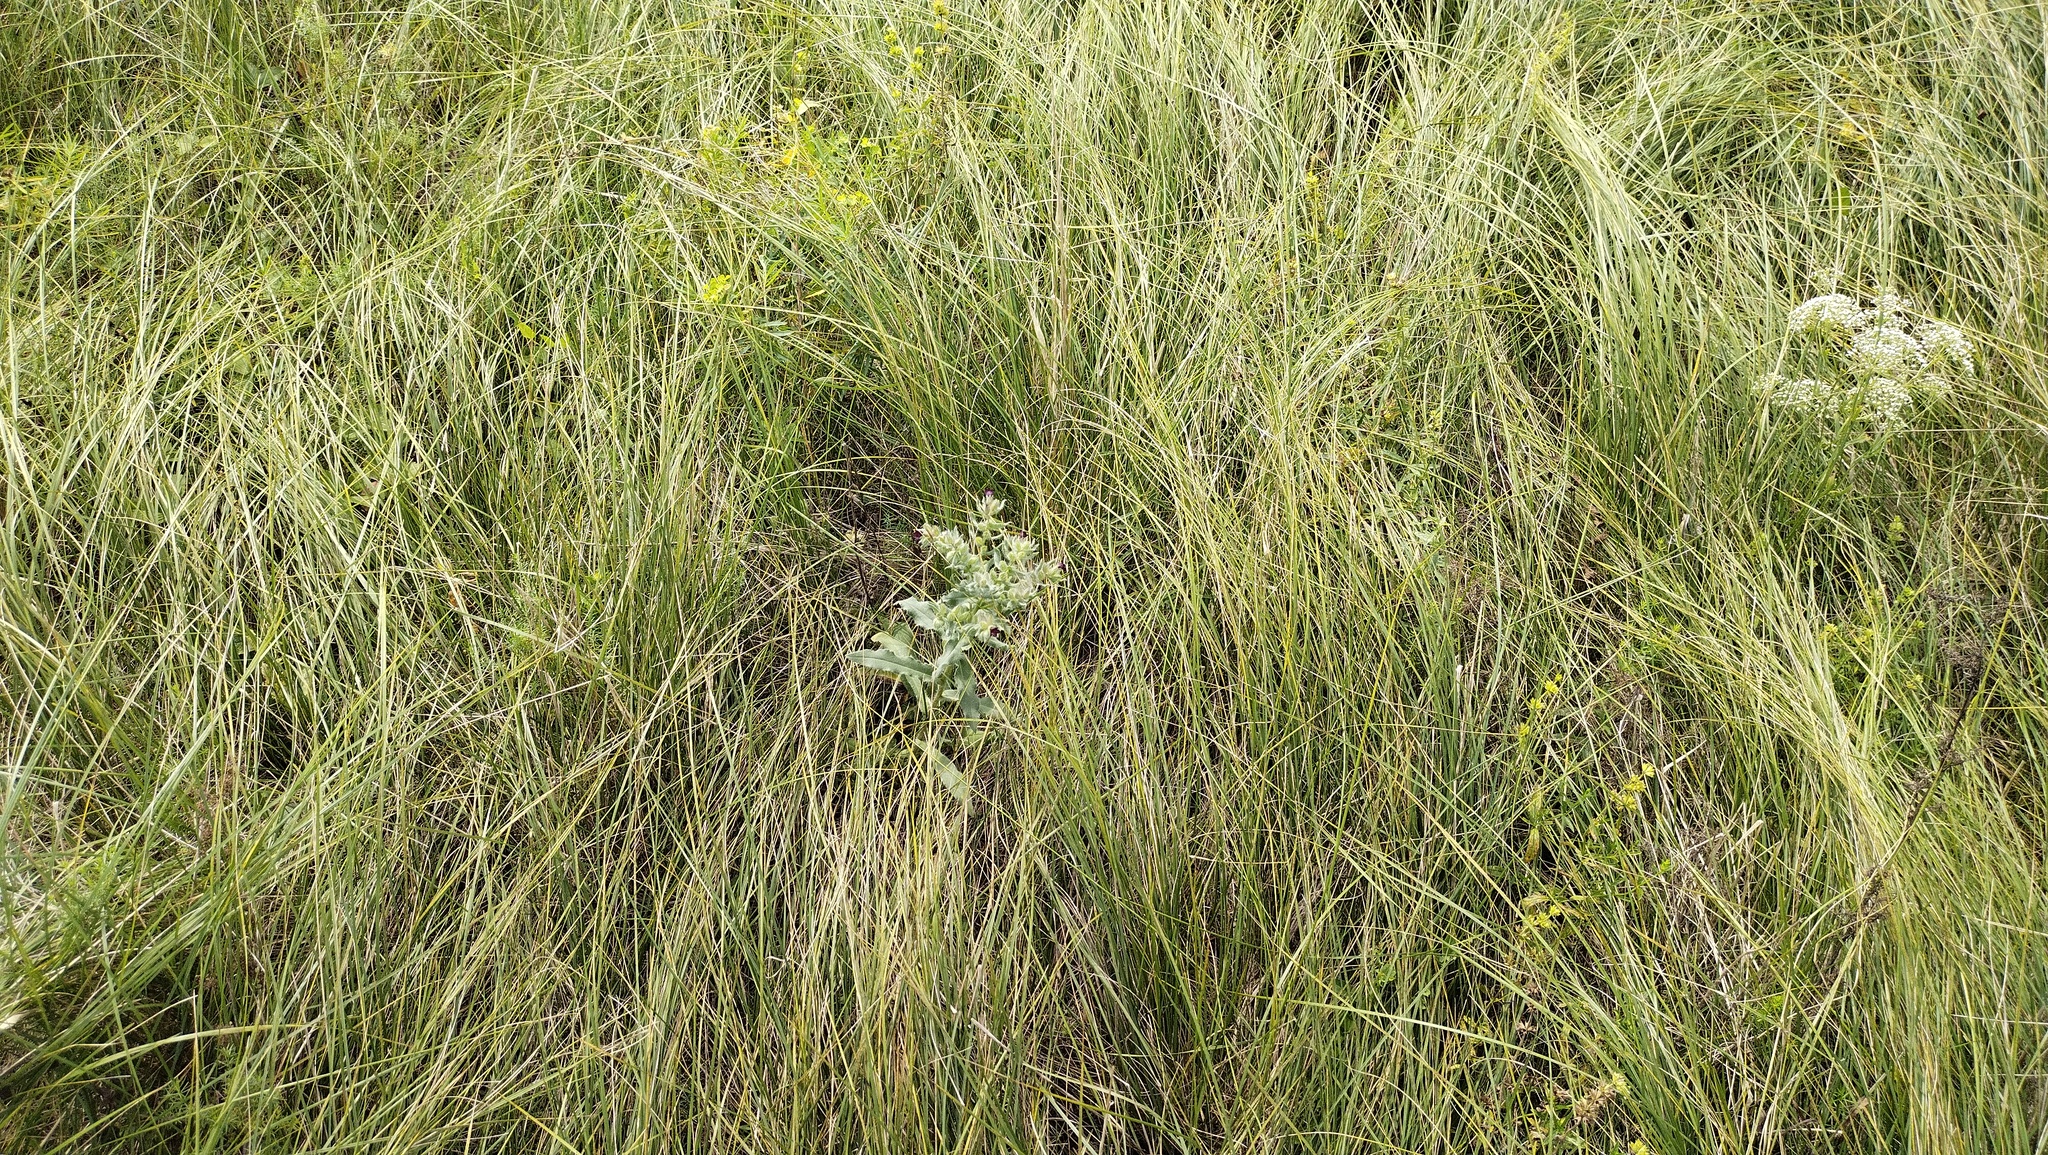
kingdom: Plantae
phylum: Tracheophyta
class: Magnoliopsida
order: Boraginales
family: Boraginaceae
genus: Nonea
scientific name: Nonea pulla
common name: Brown nonea
